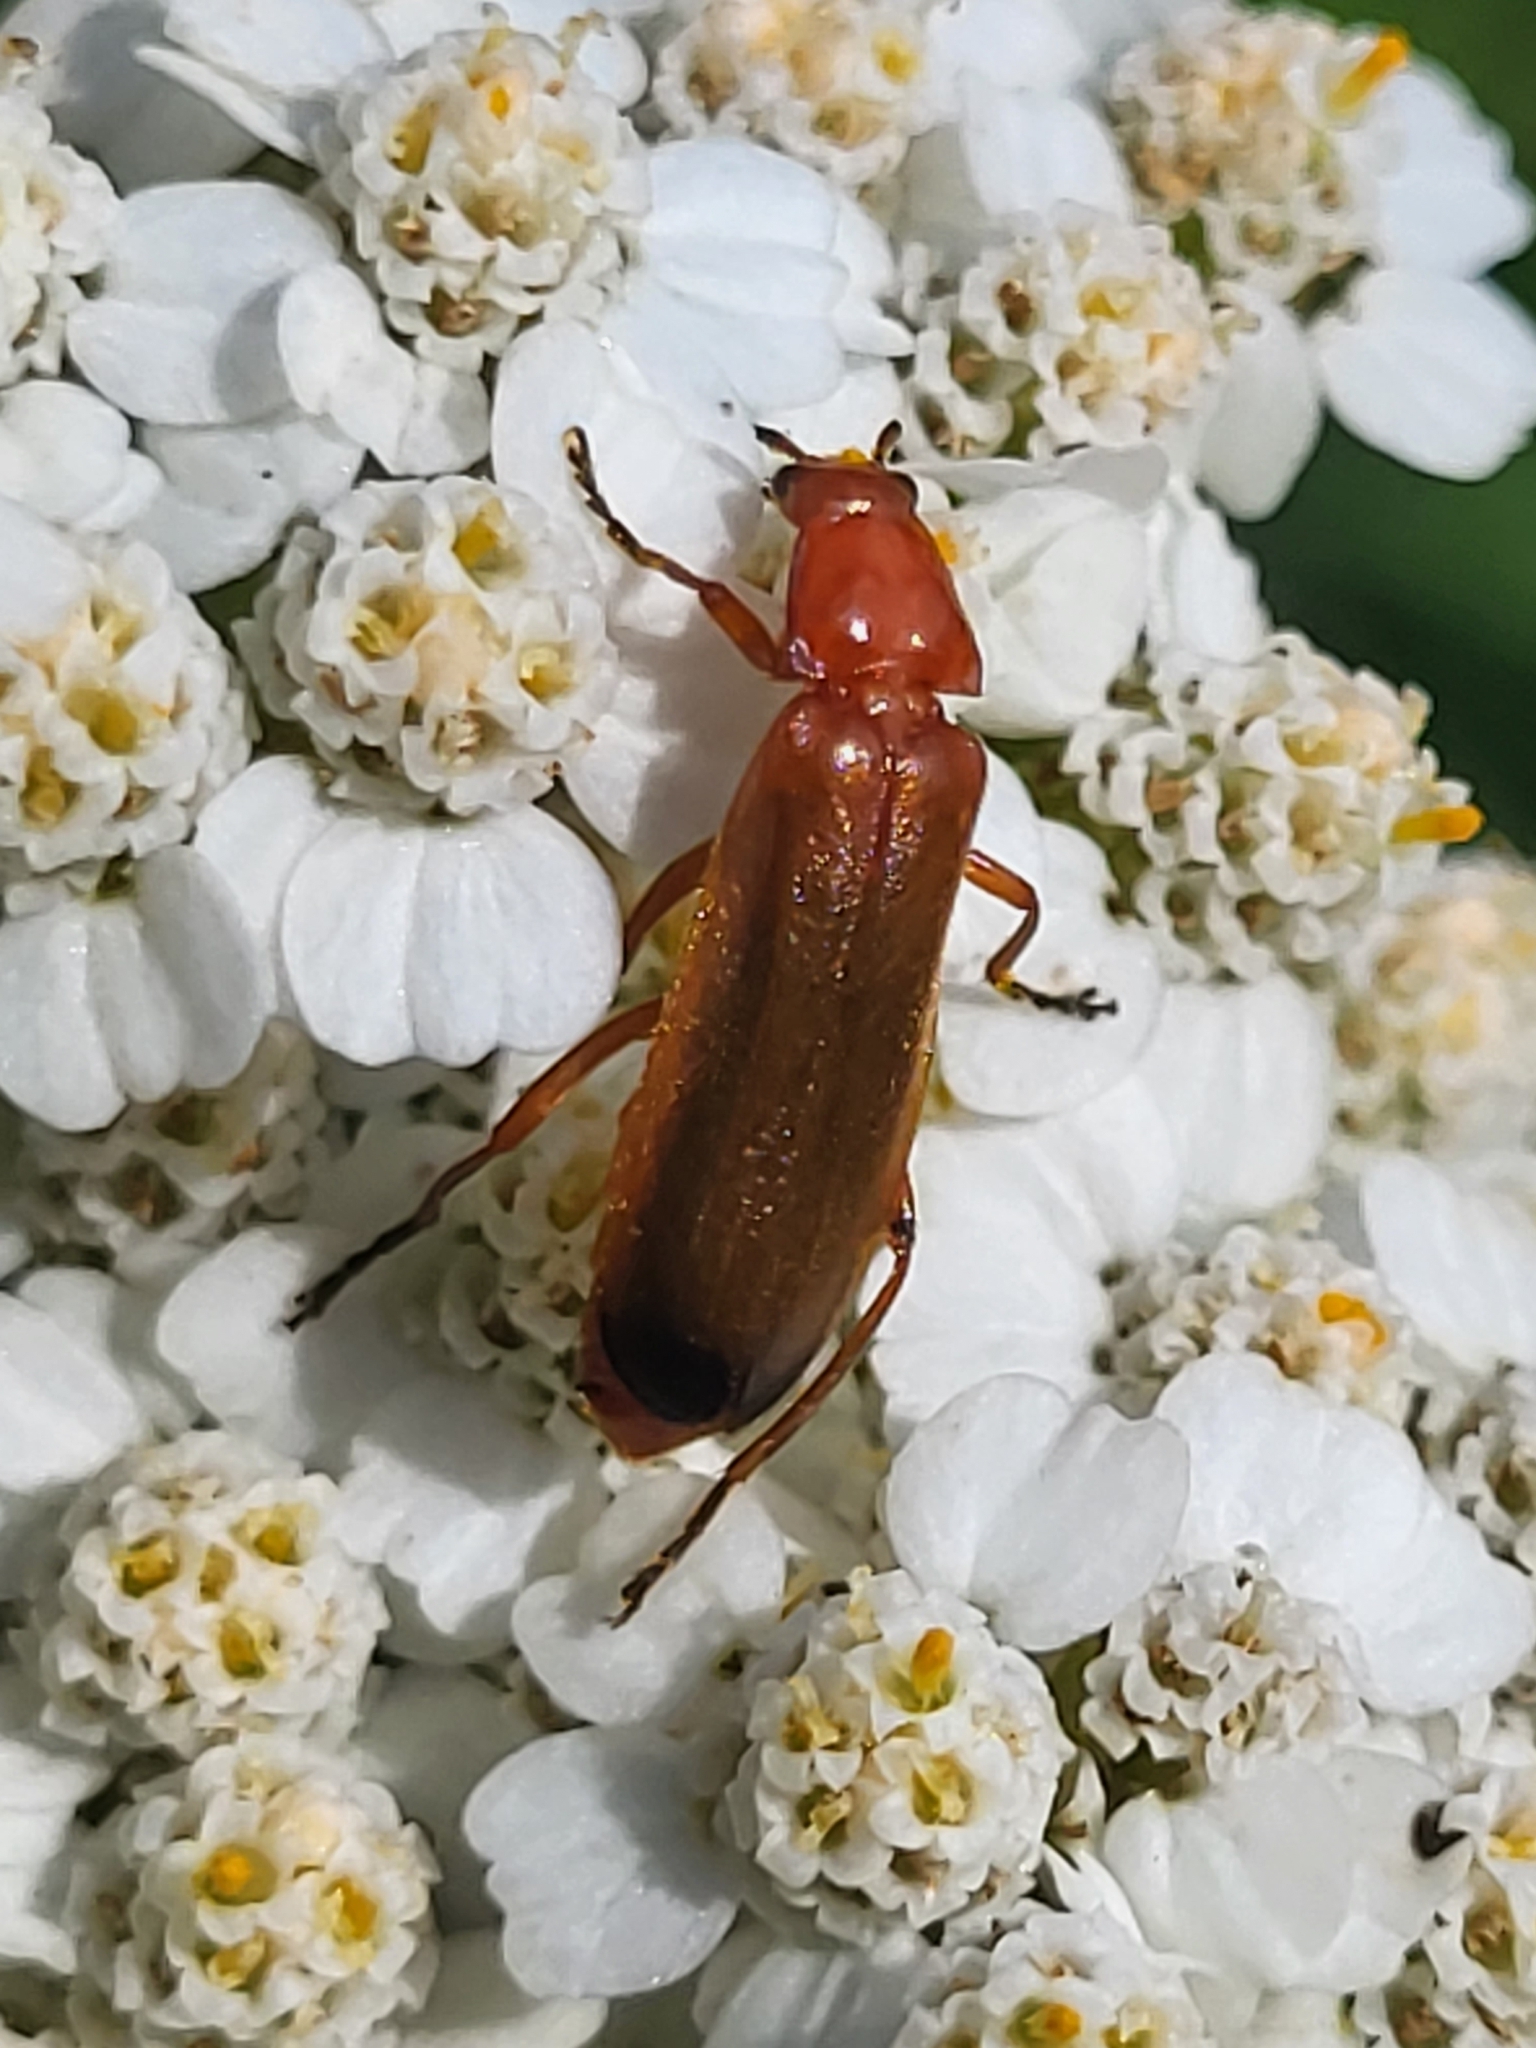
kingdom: Animalia
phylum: Arthropoda
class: Insecta
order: Coleoptera
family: Cantharidae
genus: Rhagonycha
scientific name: Rhagonycha fulva
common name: Common red soldier beetle
